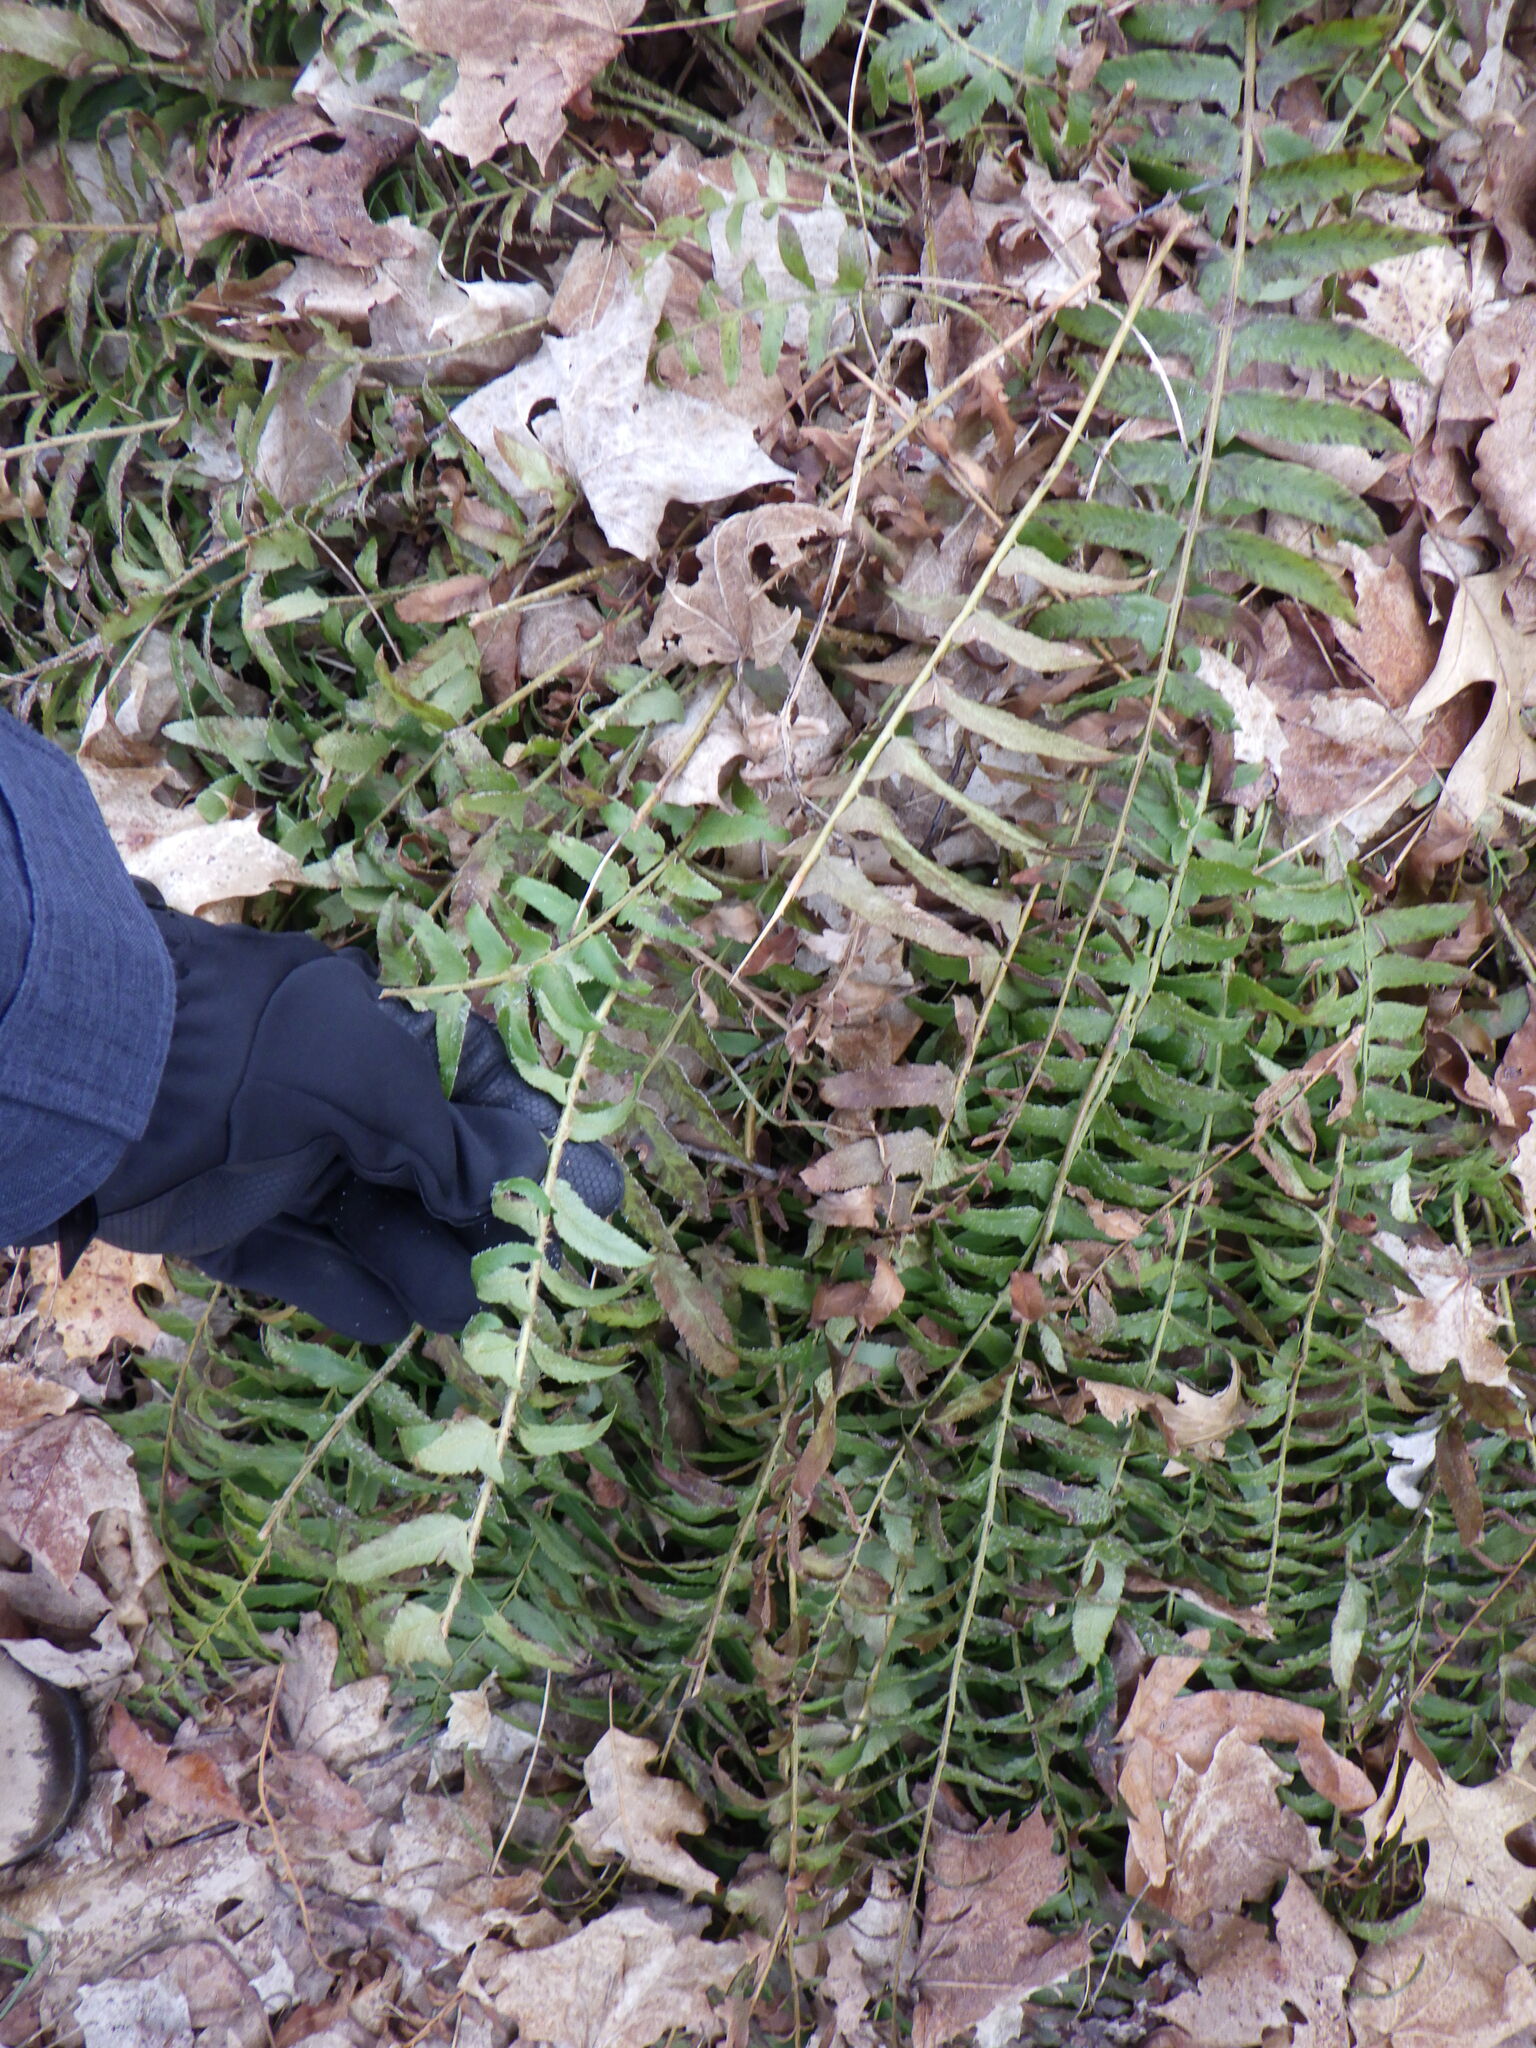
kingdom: Plantae
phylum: Tracheophyta
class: Polypodiopsida
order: Polypodiales
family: Dryopteridaceae
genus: Polystichum
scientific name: Polystichum acrostichoides
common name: Christmas fern
